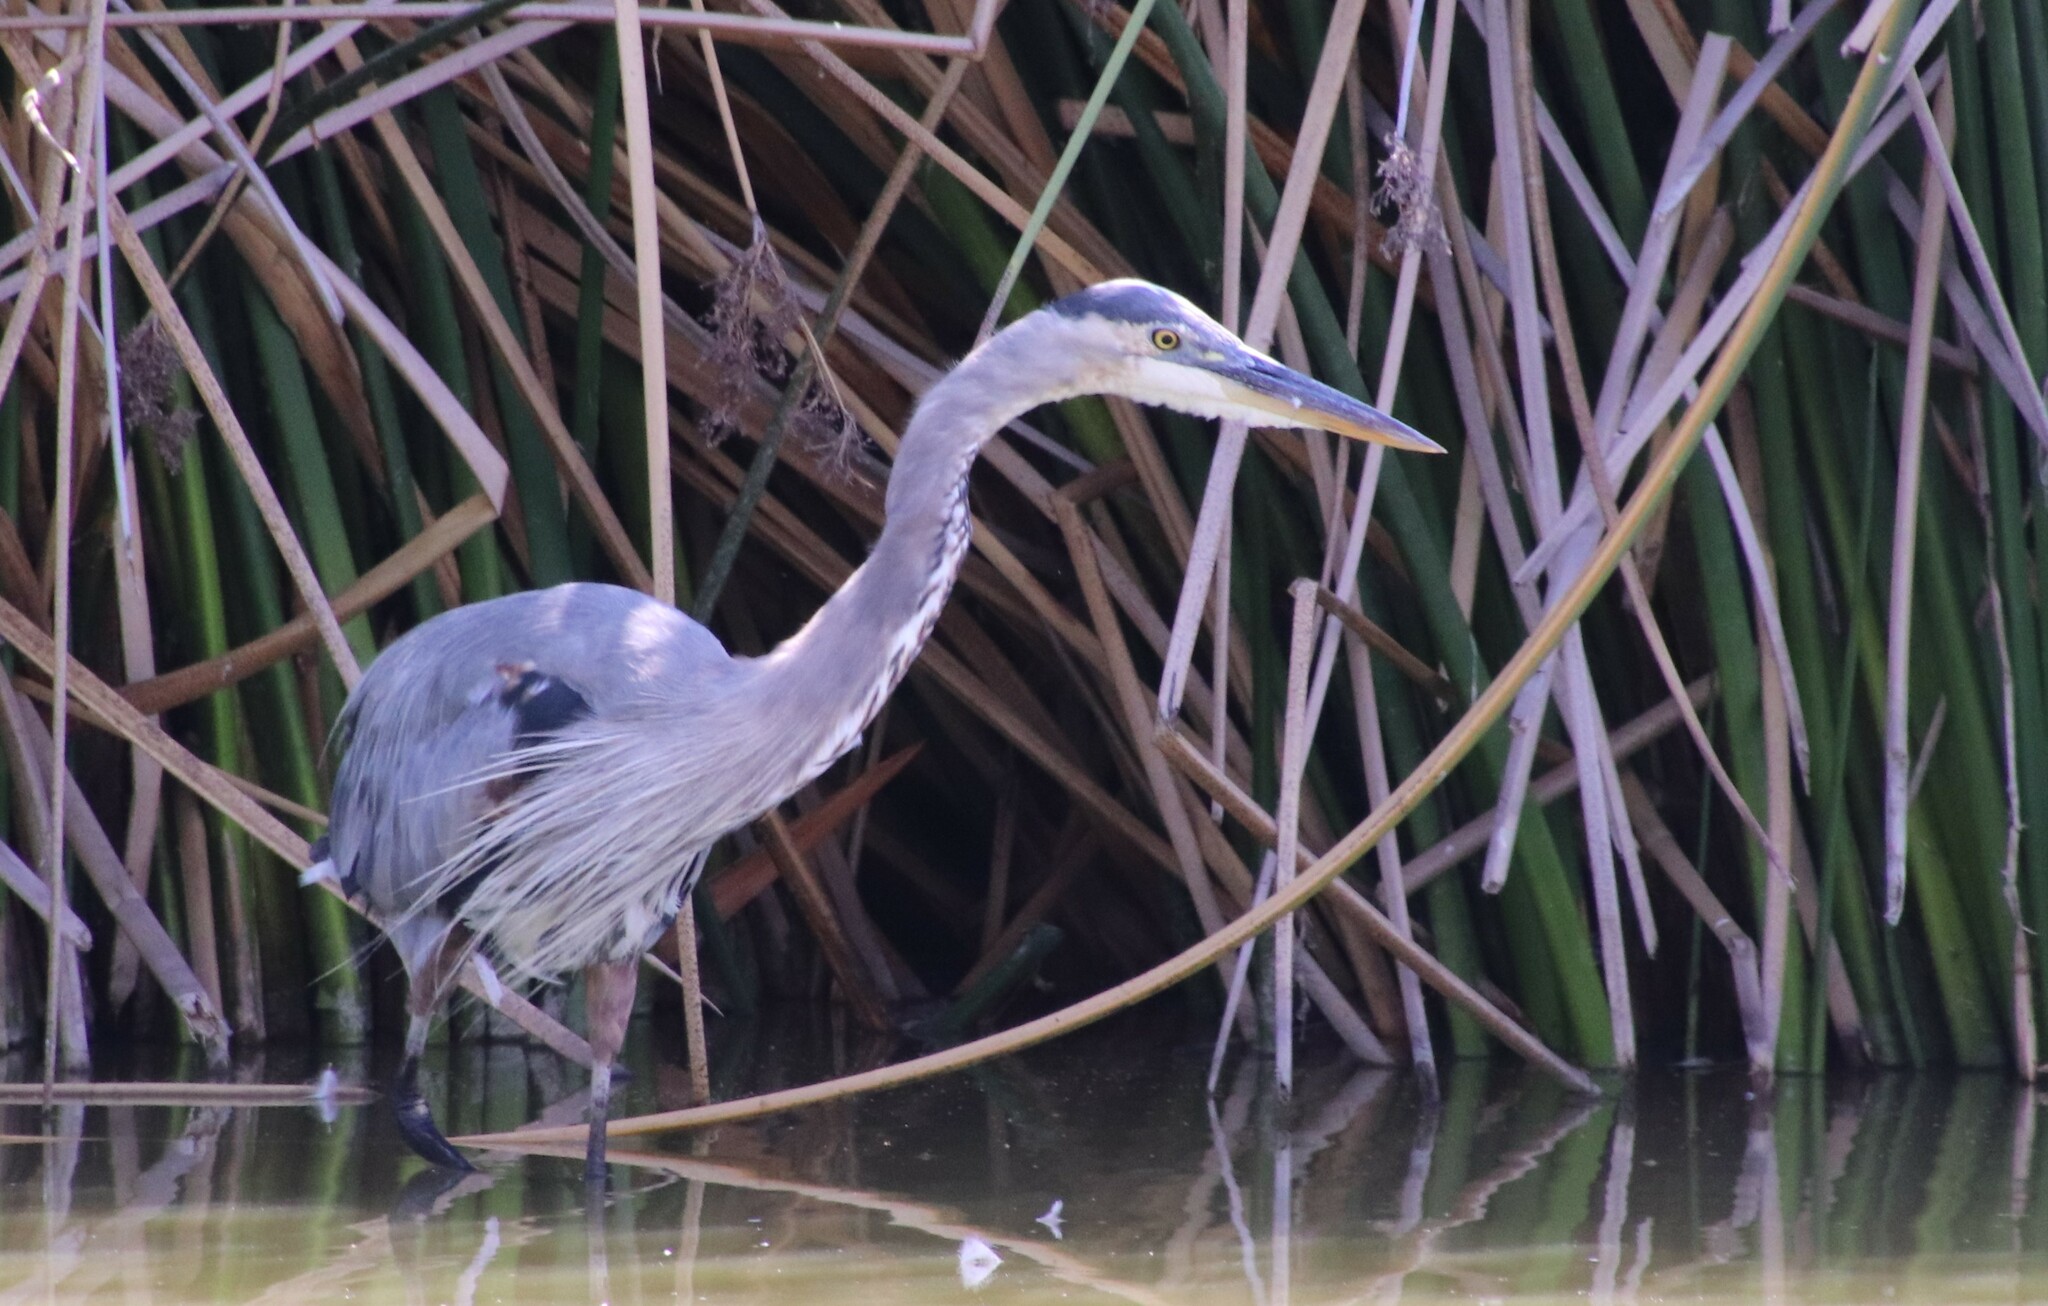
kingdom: Animalia
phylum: Chordata
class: Aves
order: Pelecaniformes
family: Ardeidae
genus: Ardea
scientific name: Ardea herodias
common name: Great blue heron
